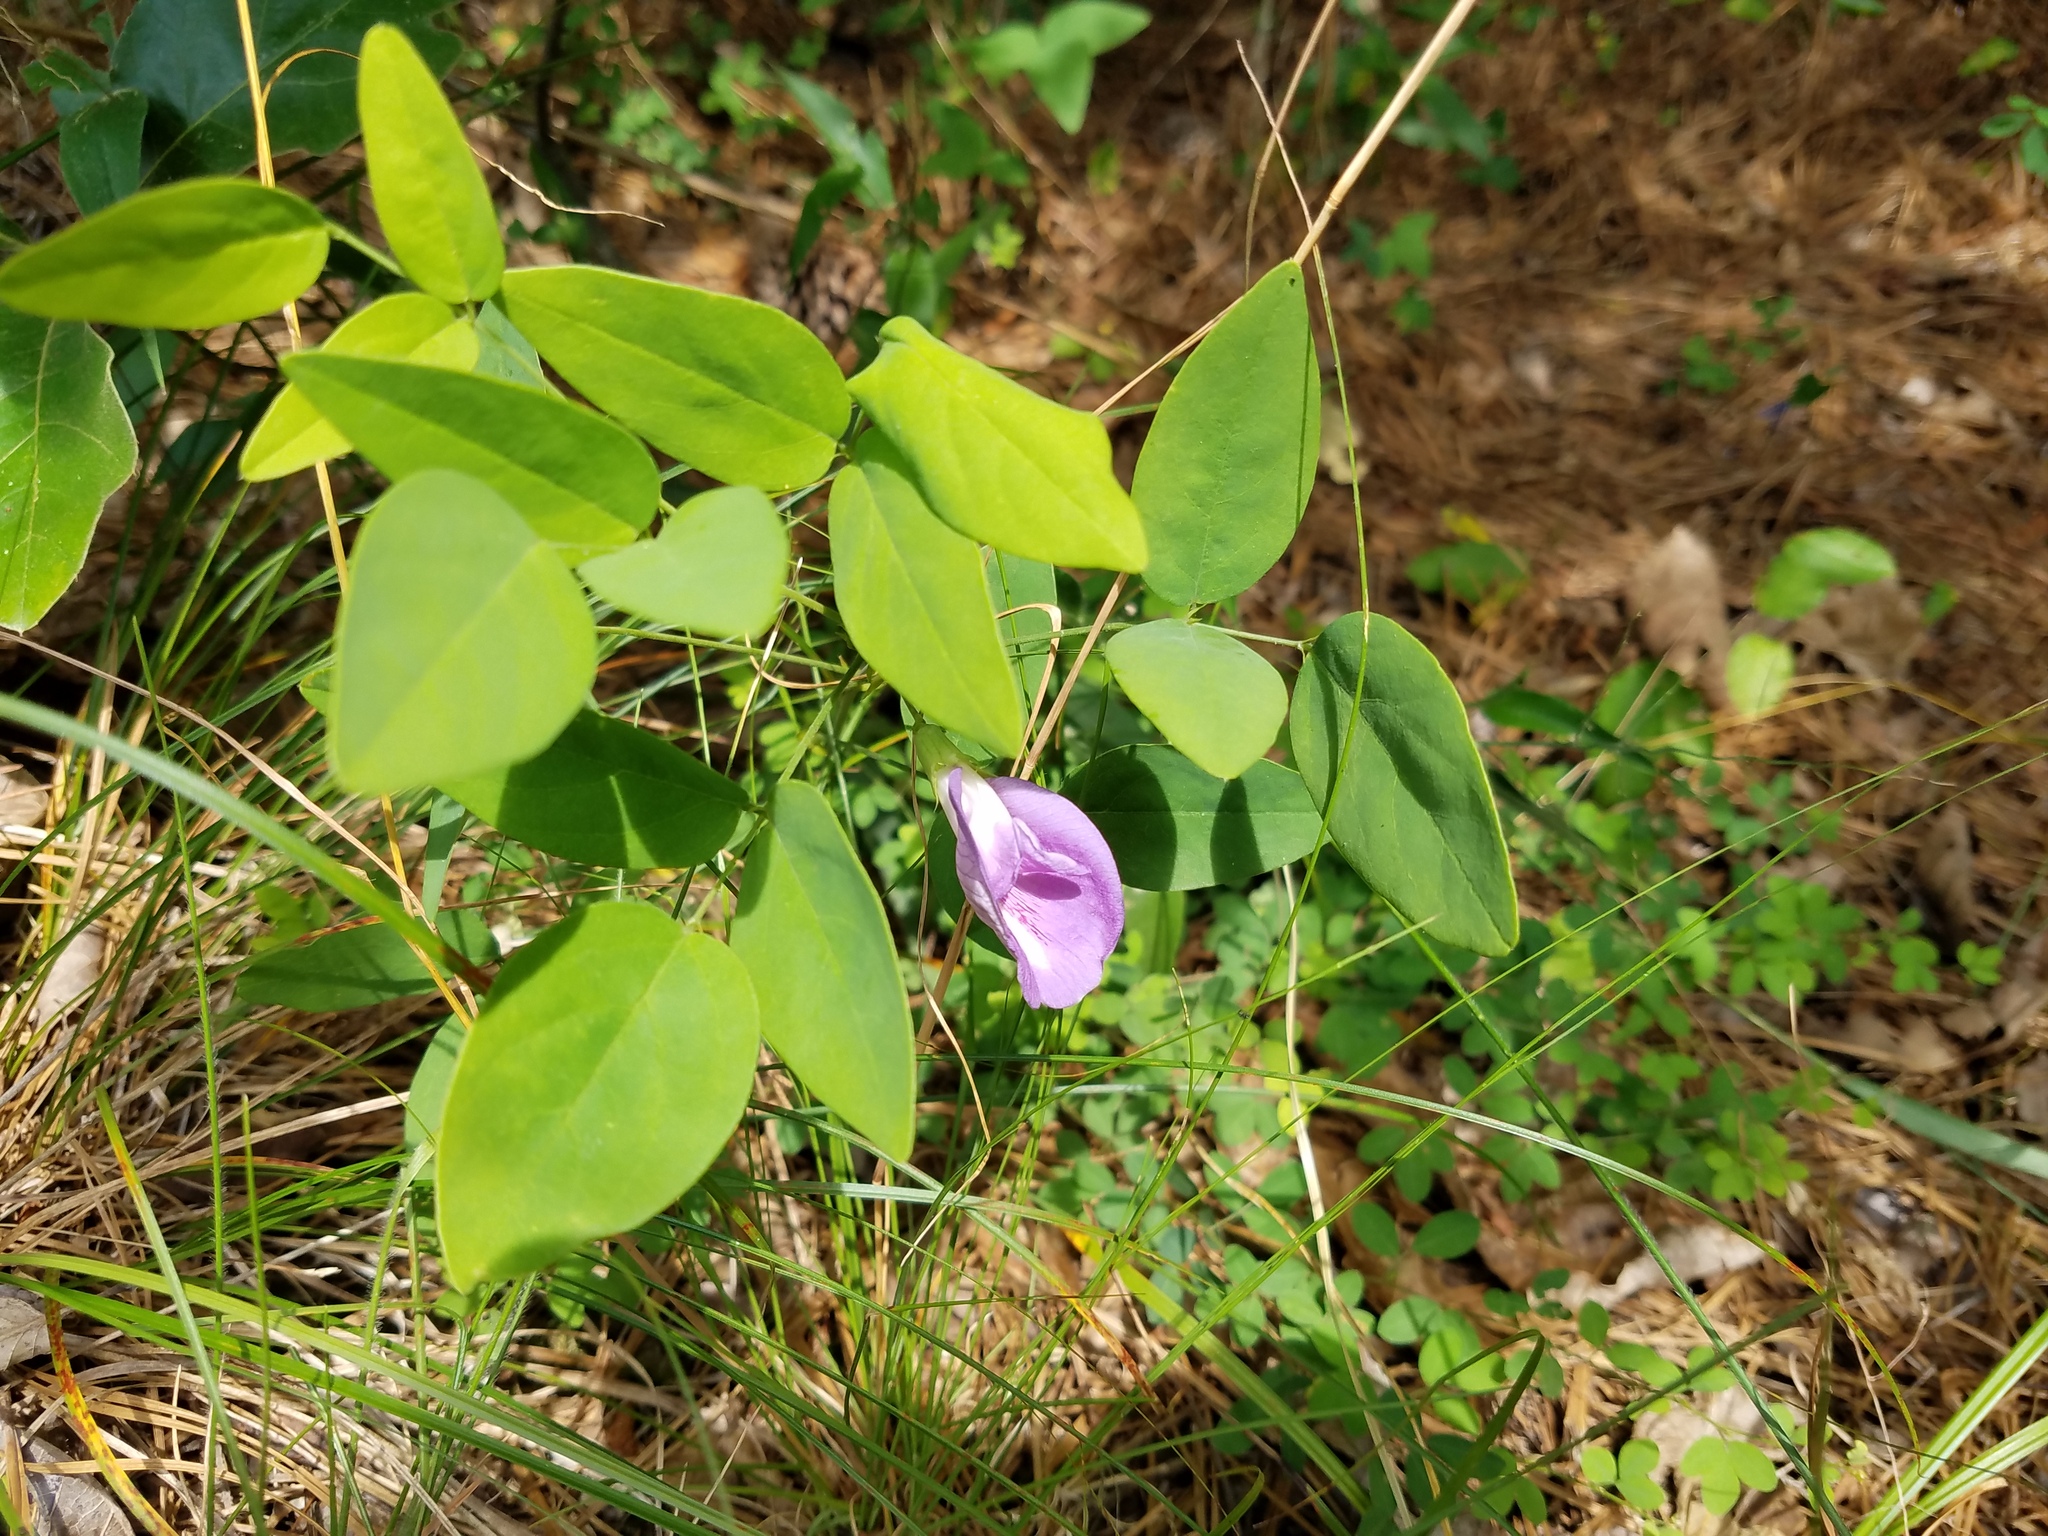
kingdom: Plantae
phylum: Tracheophyta
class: Magnoliopsida
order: Fabales
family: Fabaceae
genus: Clitoria
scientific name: Clitoria mariana
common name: Butterfly-pea
